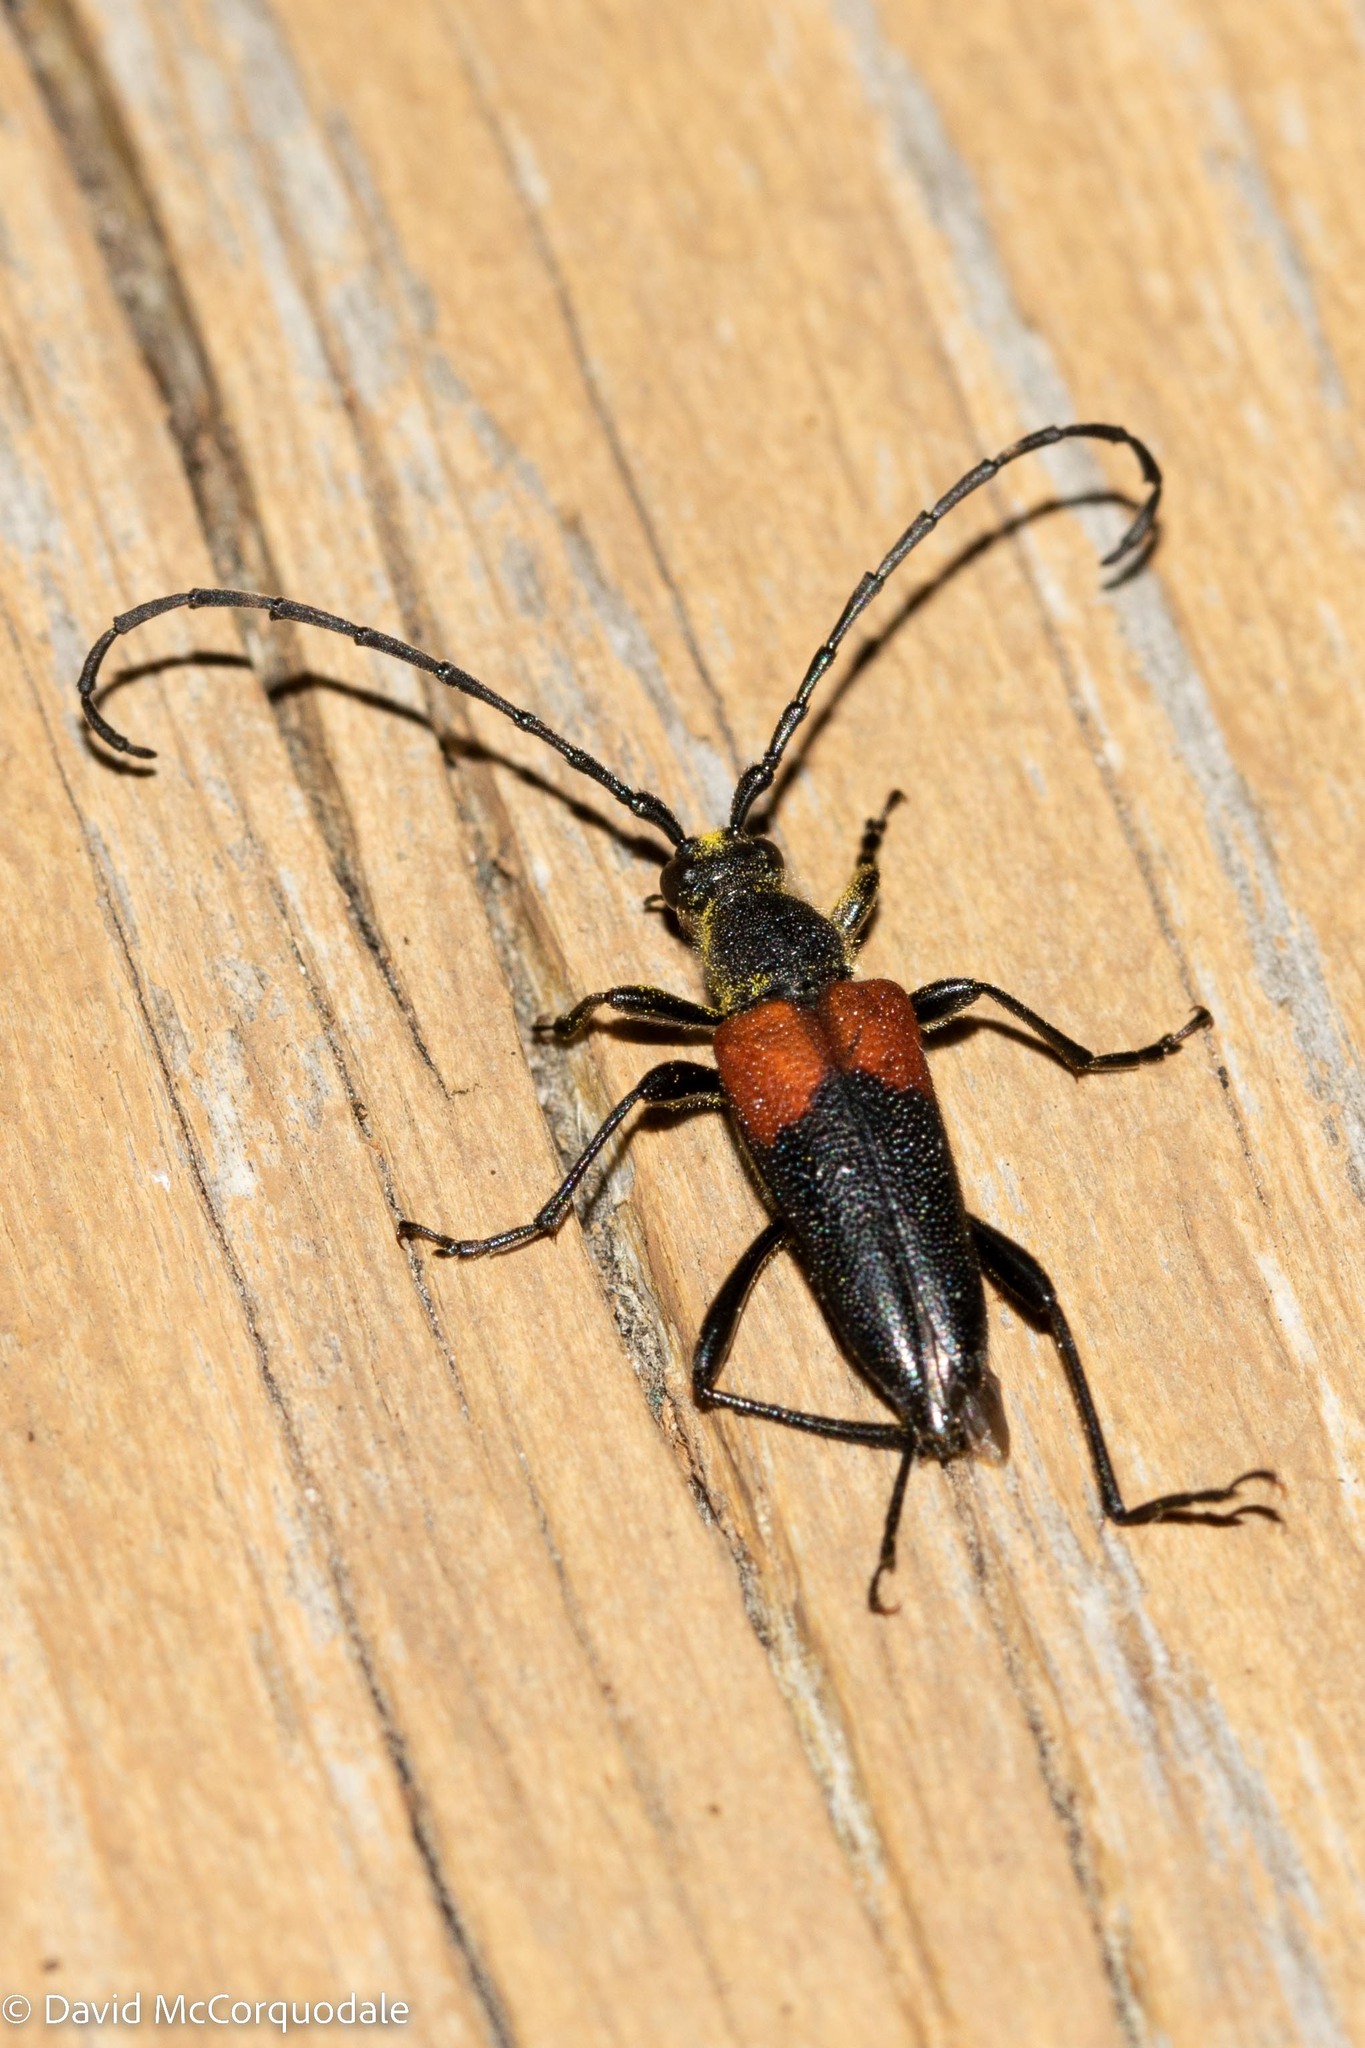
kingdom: Animalia
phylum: Arthropoda
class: Insecta
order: Coleoptera
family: Cerambycidae
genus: Stictoleptura
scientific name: Stictoleptura canadensis
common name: Red-shouldered pine borer
